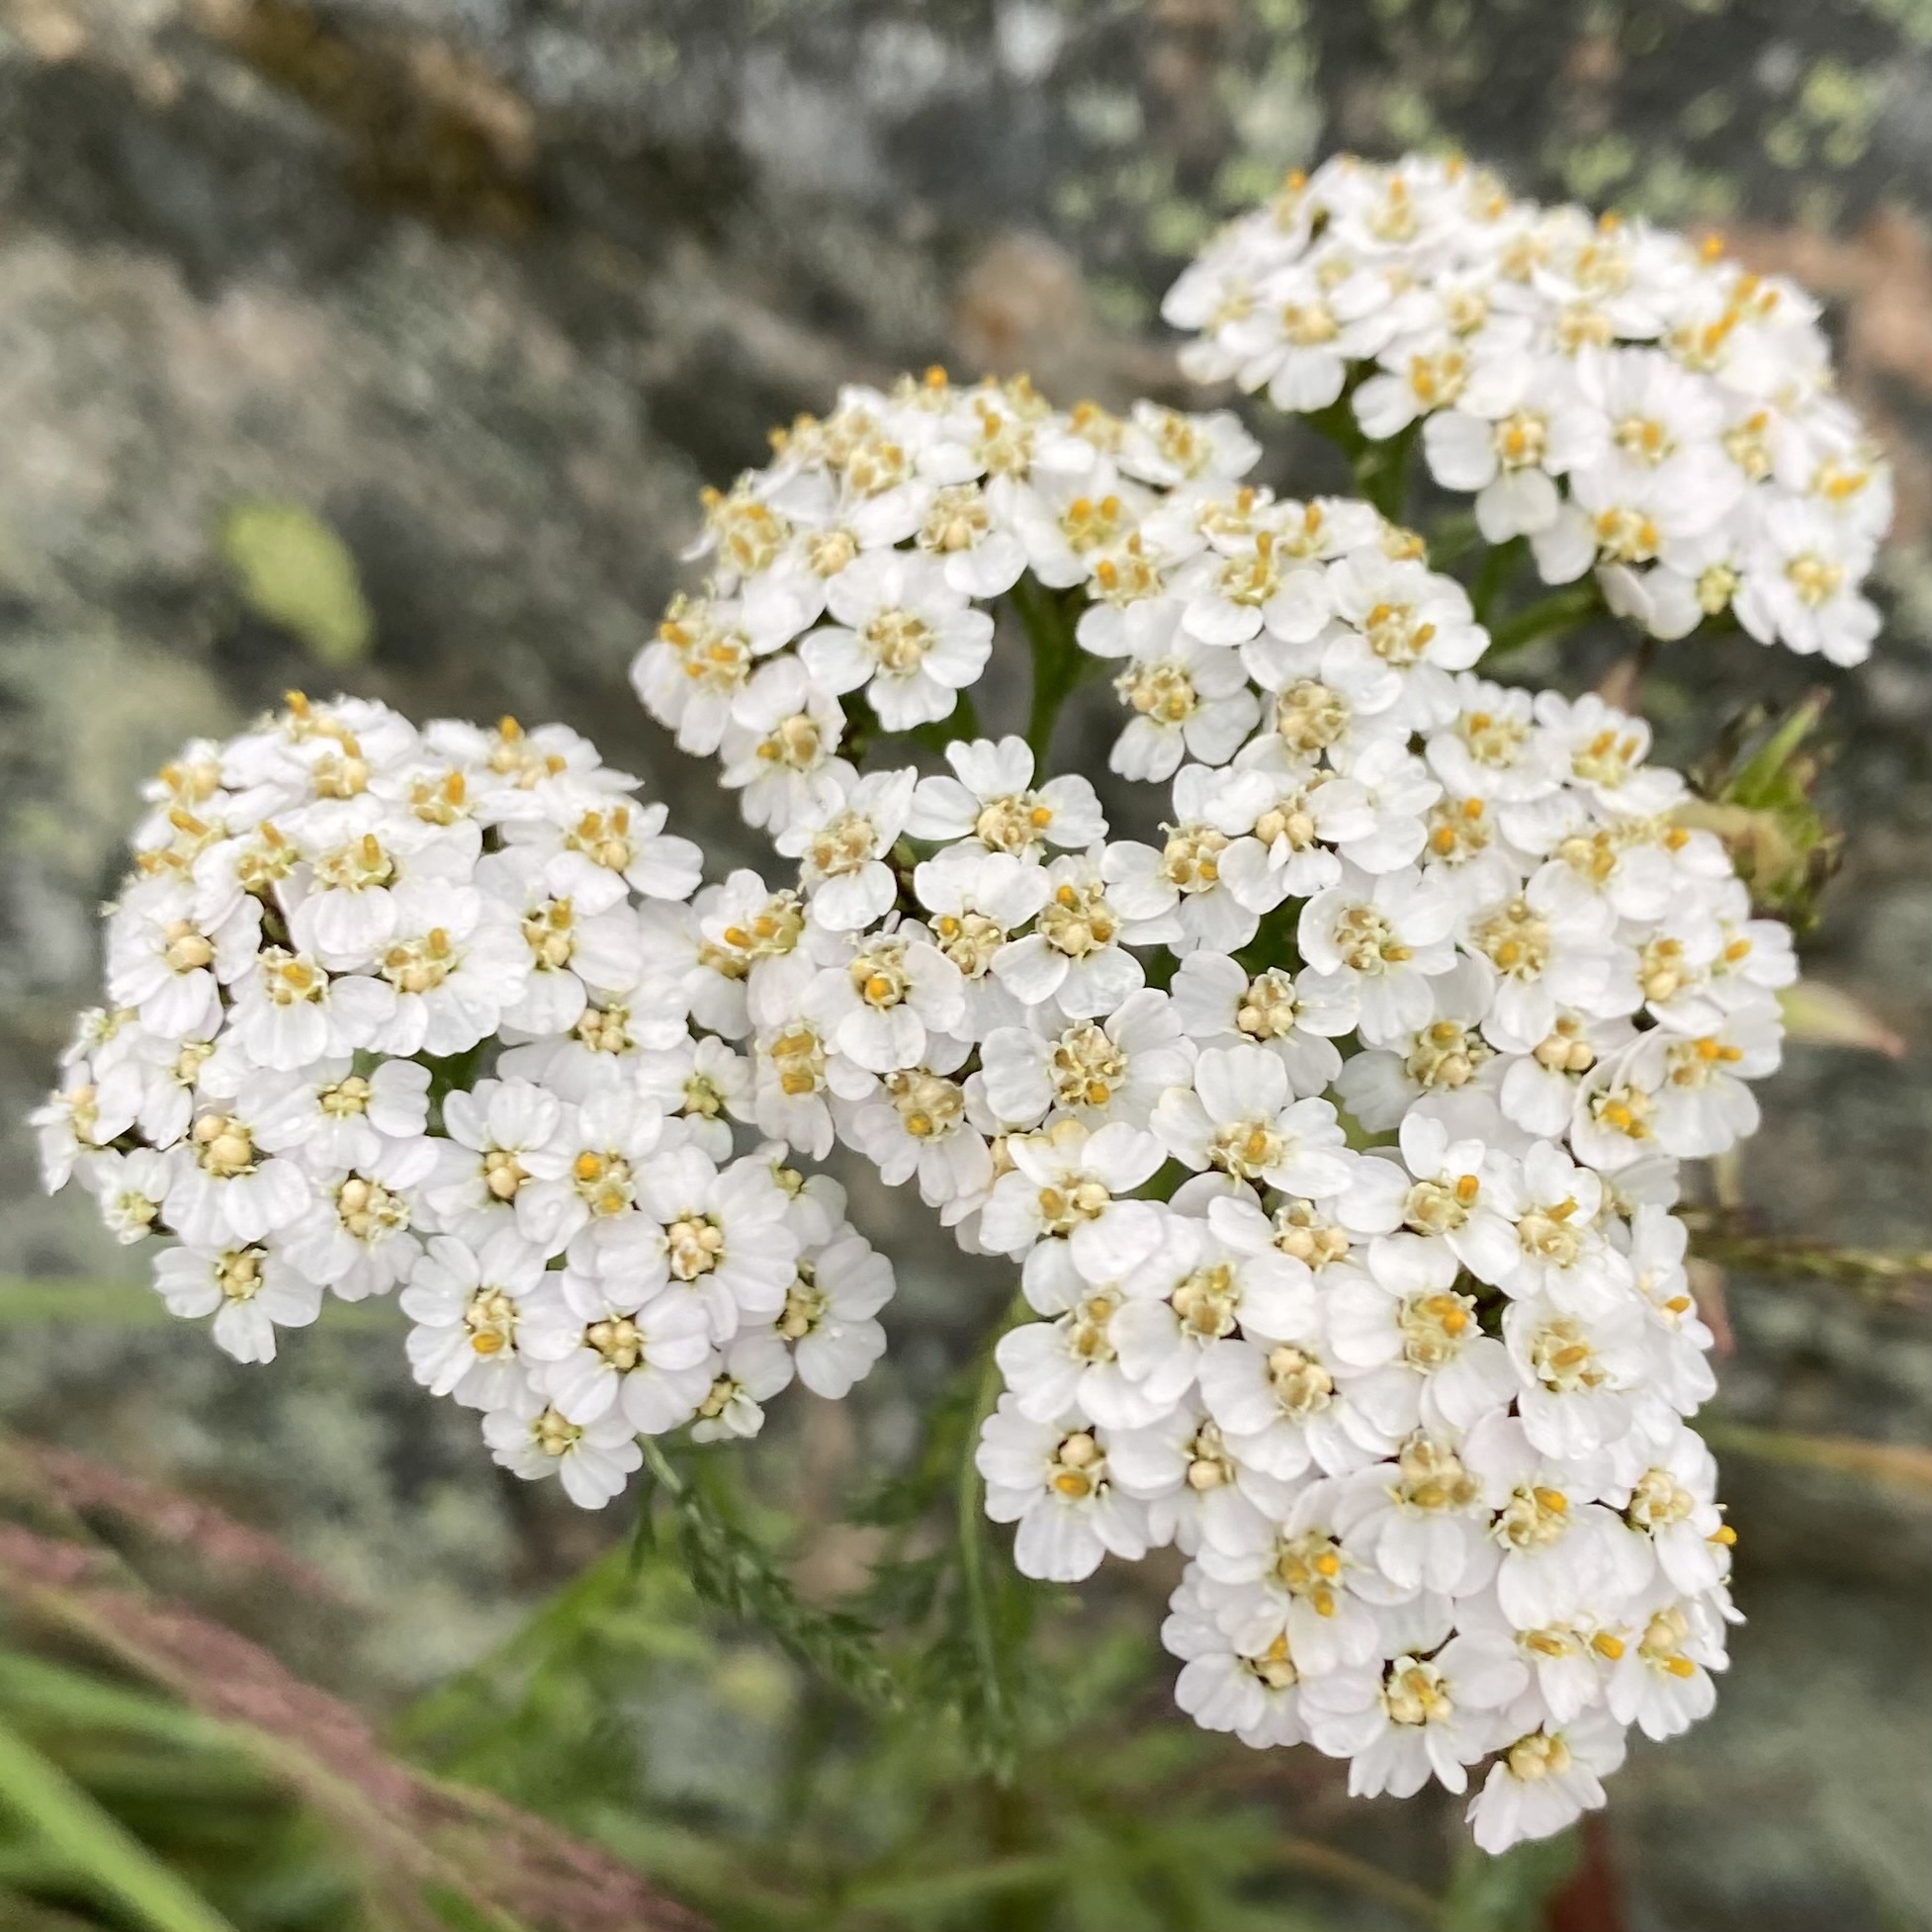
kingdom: Plantae
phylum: Tracheophyta
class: Magnoliopsida
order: Asterales
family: Asteraceae
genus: Achillea
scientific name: Achillea millefolium
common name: Yarrow
